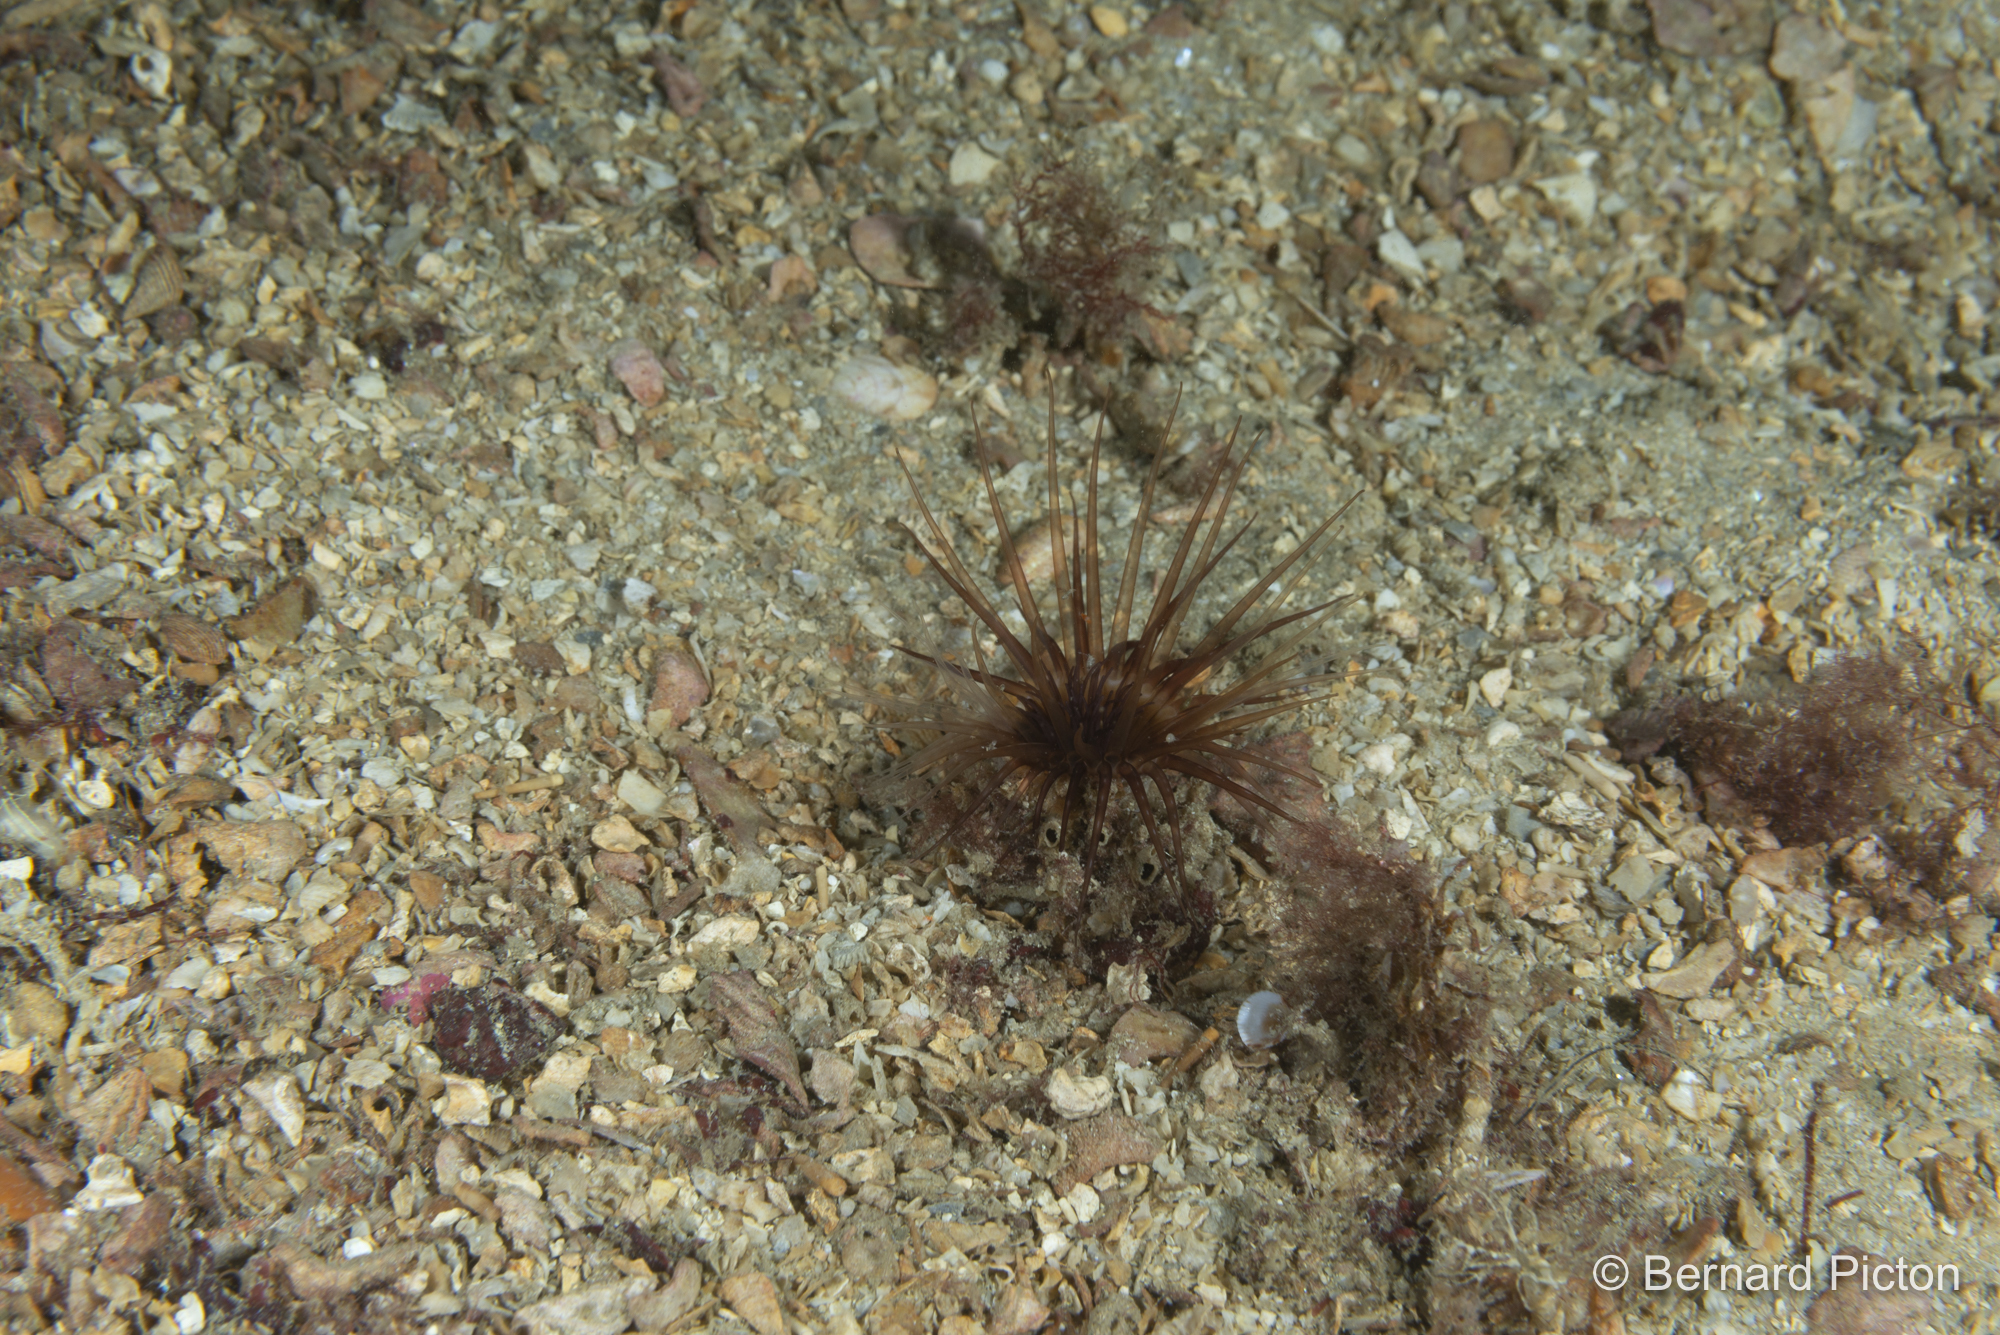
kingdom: Animalia
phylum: Cnidaria
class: Anthozoa
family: Cerianthidae
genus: Synarachnactis
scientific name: Synarachnactis
